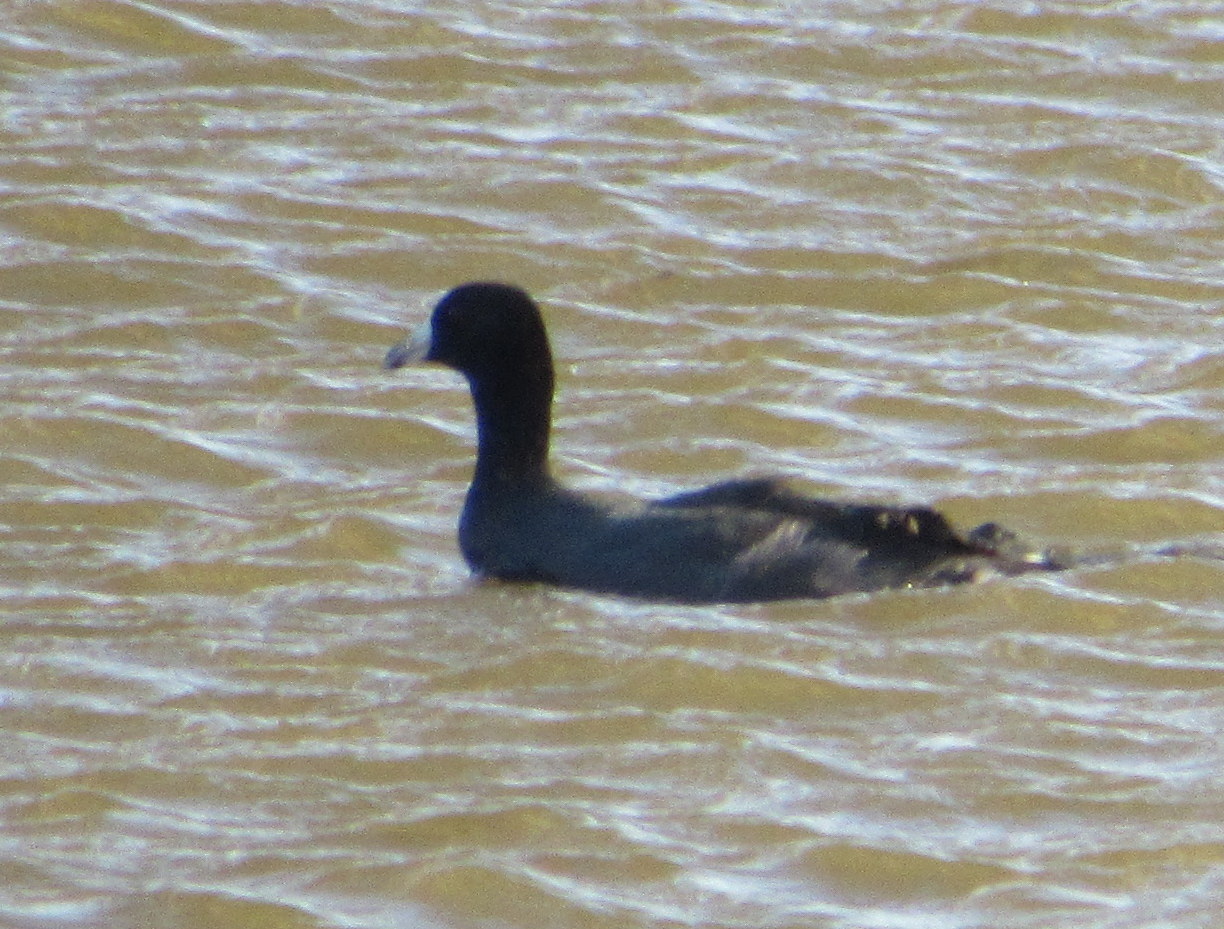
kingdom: Animalia
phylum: Chordata
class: Aves
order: Gruiformes
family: Rallidae
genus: Fulica
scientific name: Fulica americana
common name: American coot
